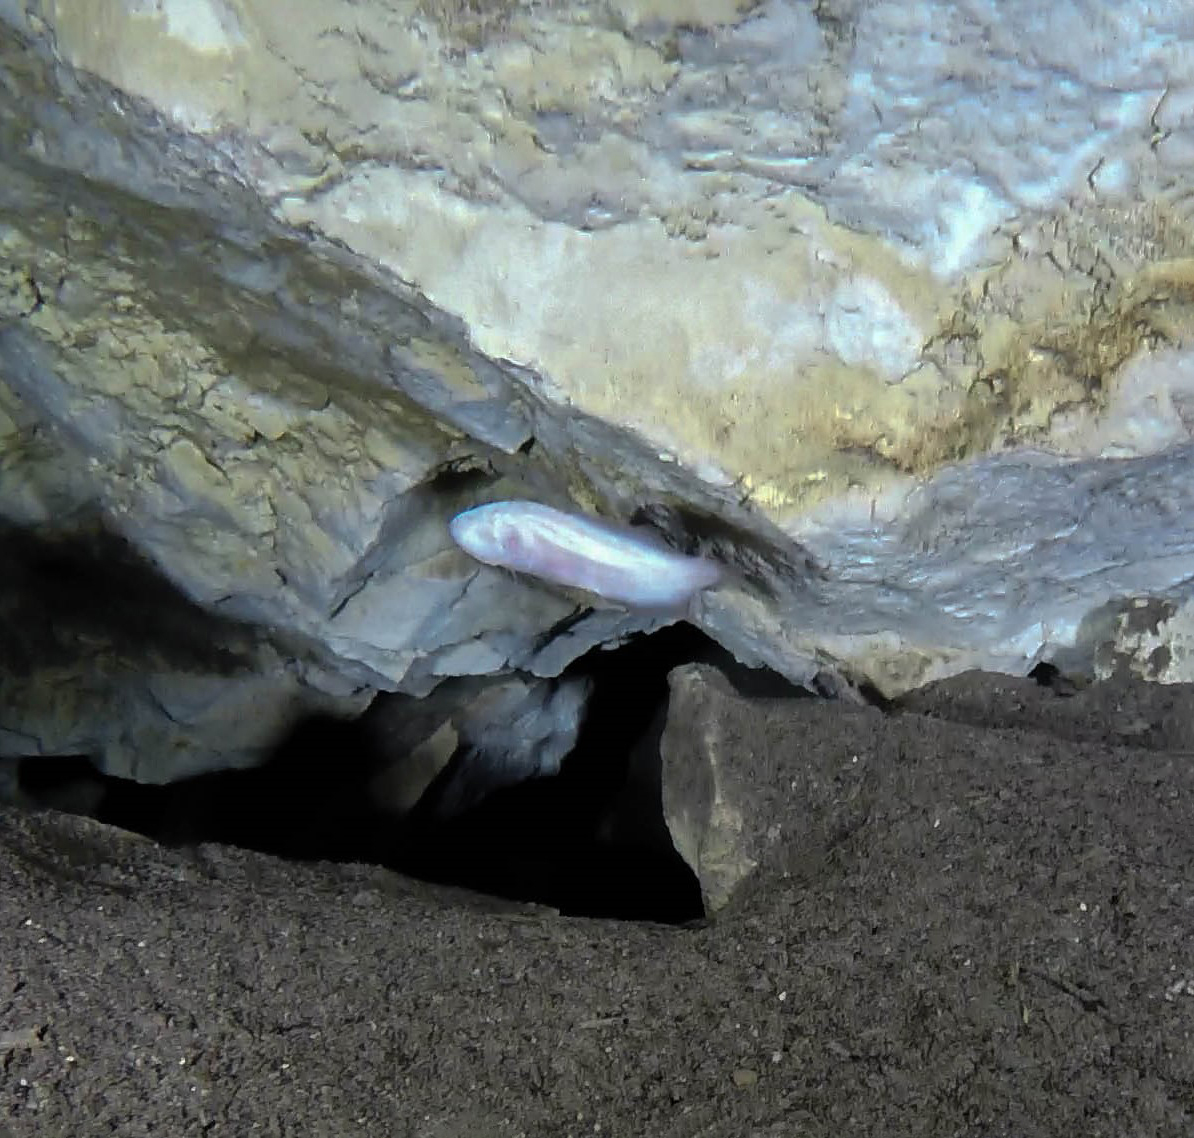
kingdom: Animalia
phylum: Chordata
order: Ophidiiformes
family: Bythitidae
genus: Typhliasina
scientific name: Typhliasina pearsei
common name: Dama ciega blanca
